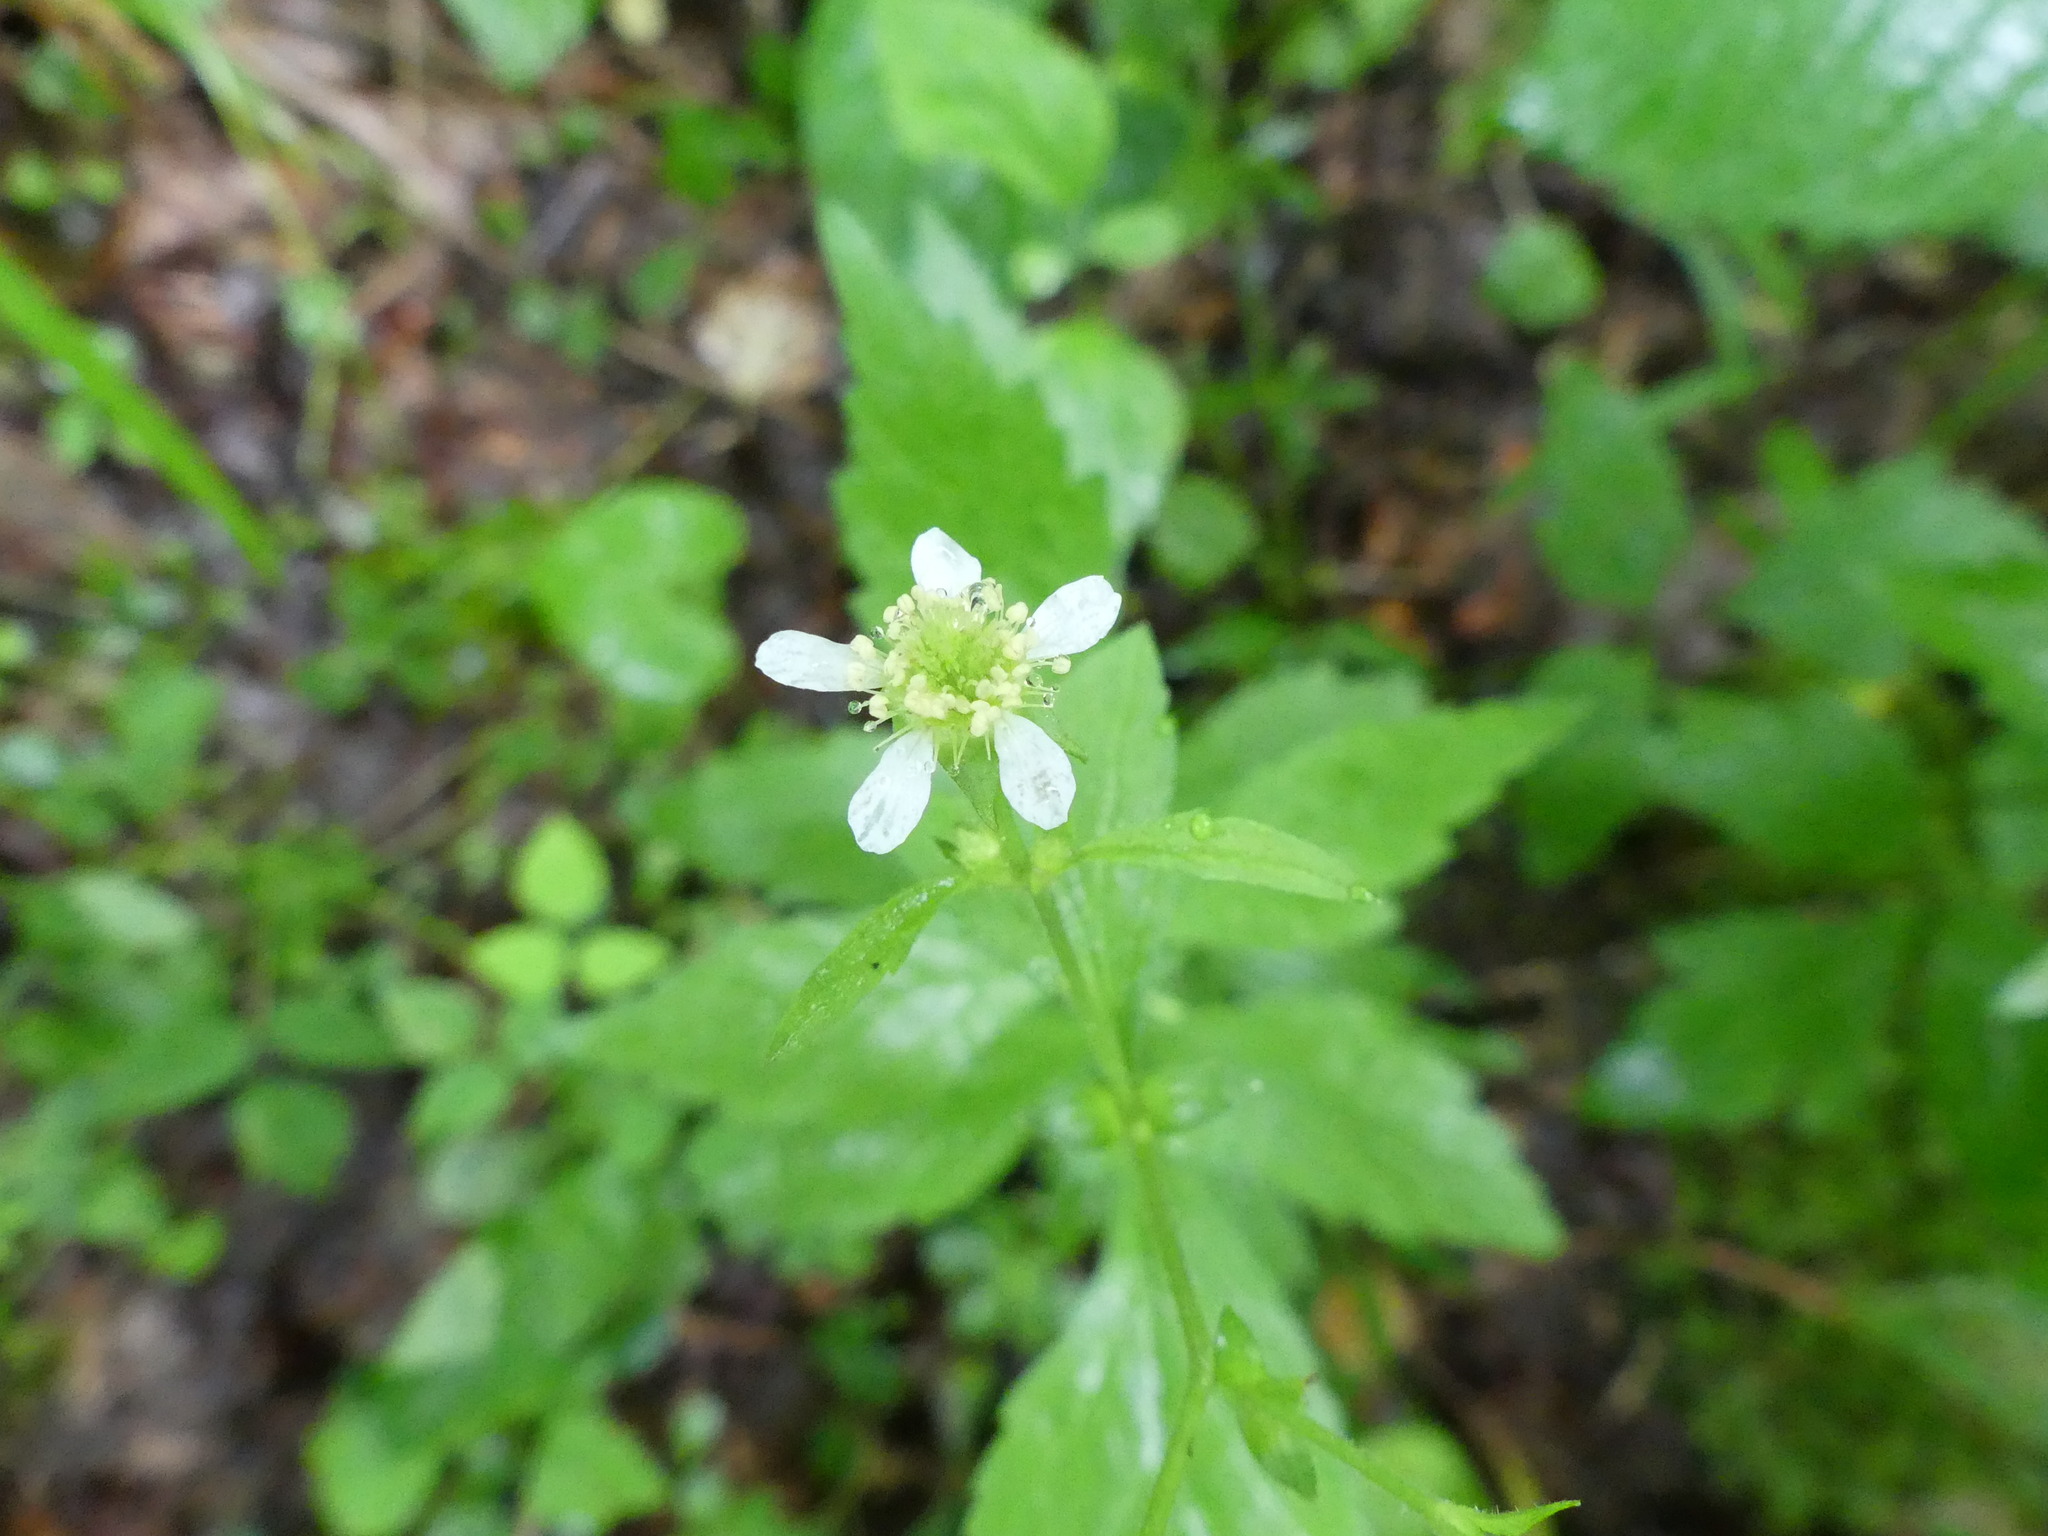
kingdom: Plantae
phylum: Tracheophyta
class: Magnoliopsida
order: Rosales
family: Rosaceae
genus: Geum
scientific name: Geum canadense
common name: White avens
